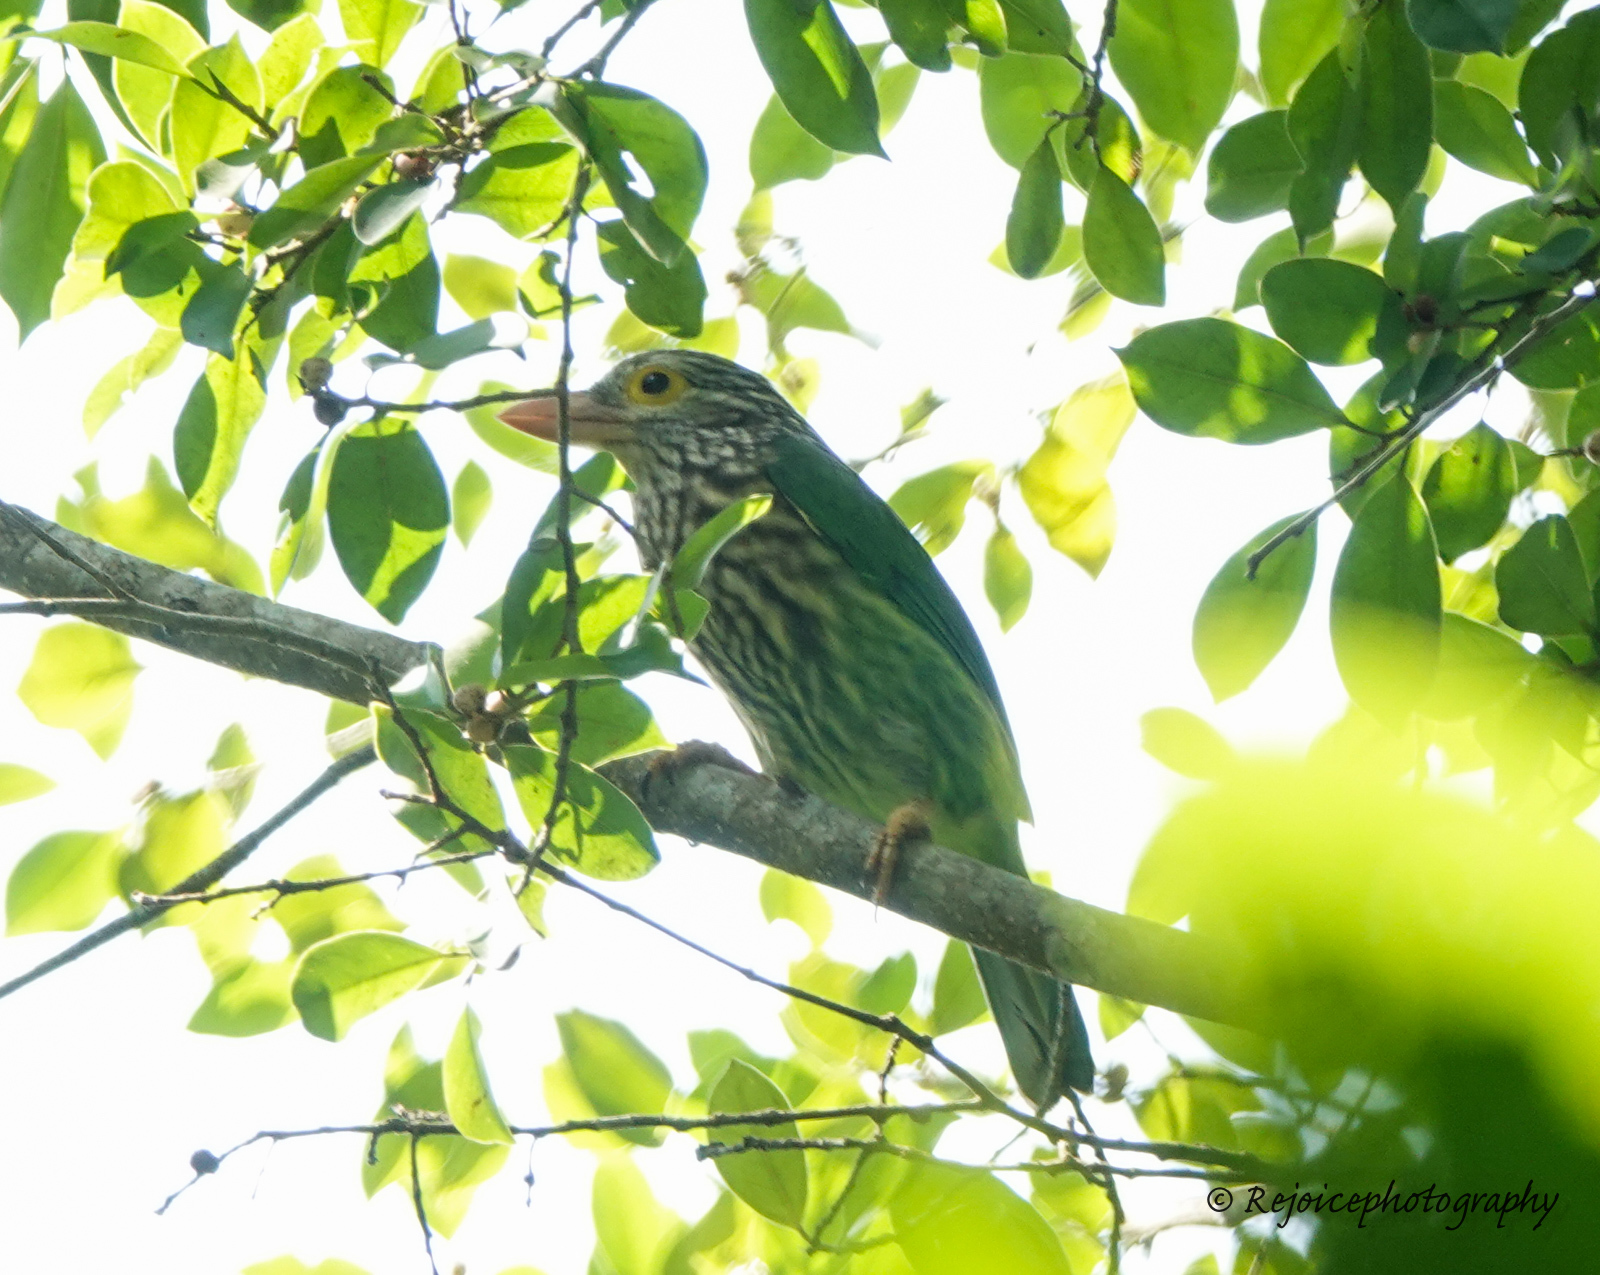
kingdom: Animalia
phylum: Chordata
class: Aves
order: Piciformes
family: Megalaimidae
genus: Psilopogon
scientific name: Psilopogon lineatus
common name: Lineated barbet
